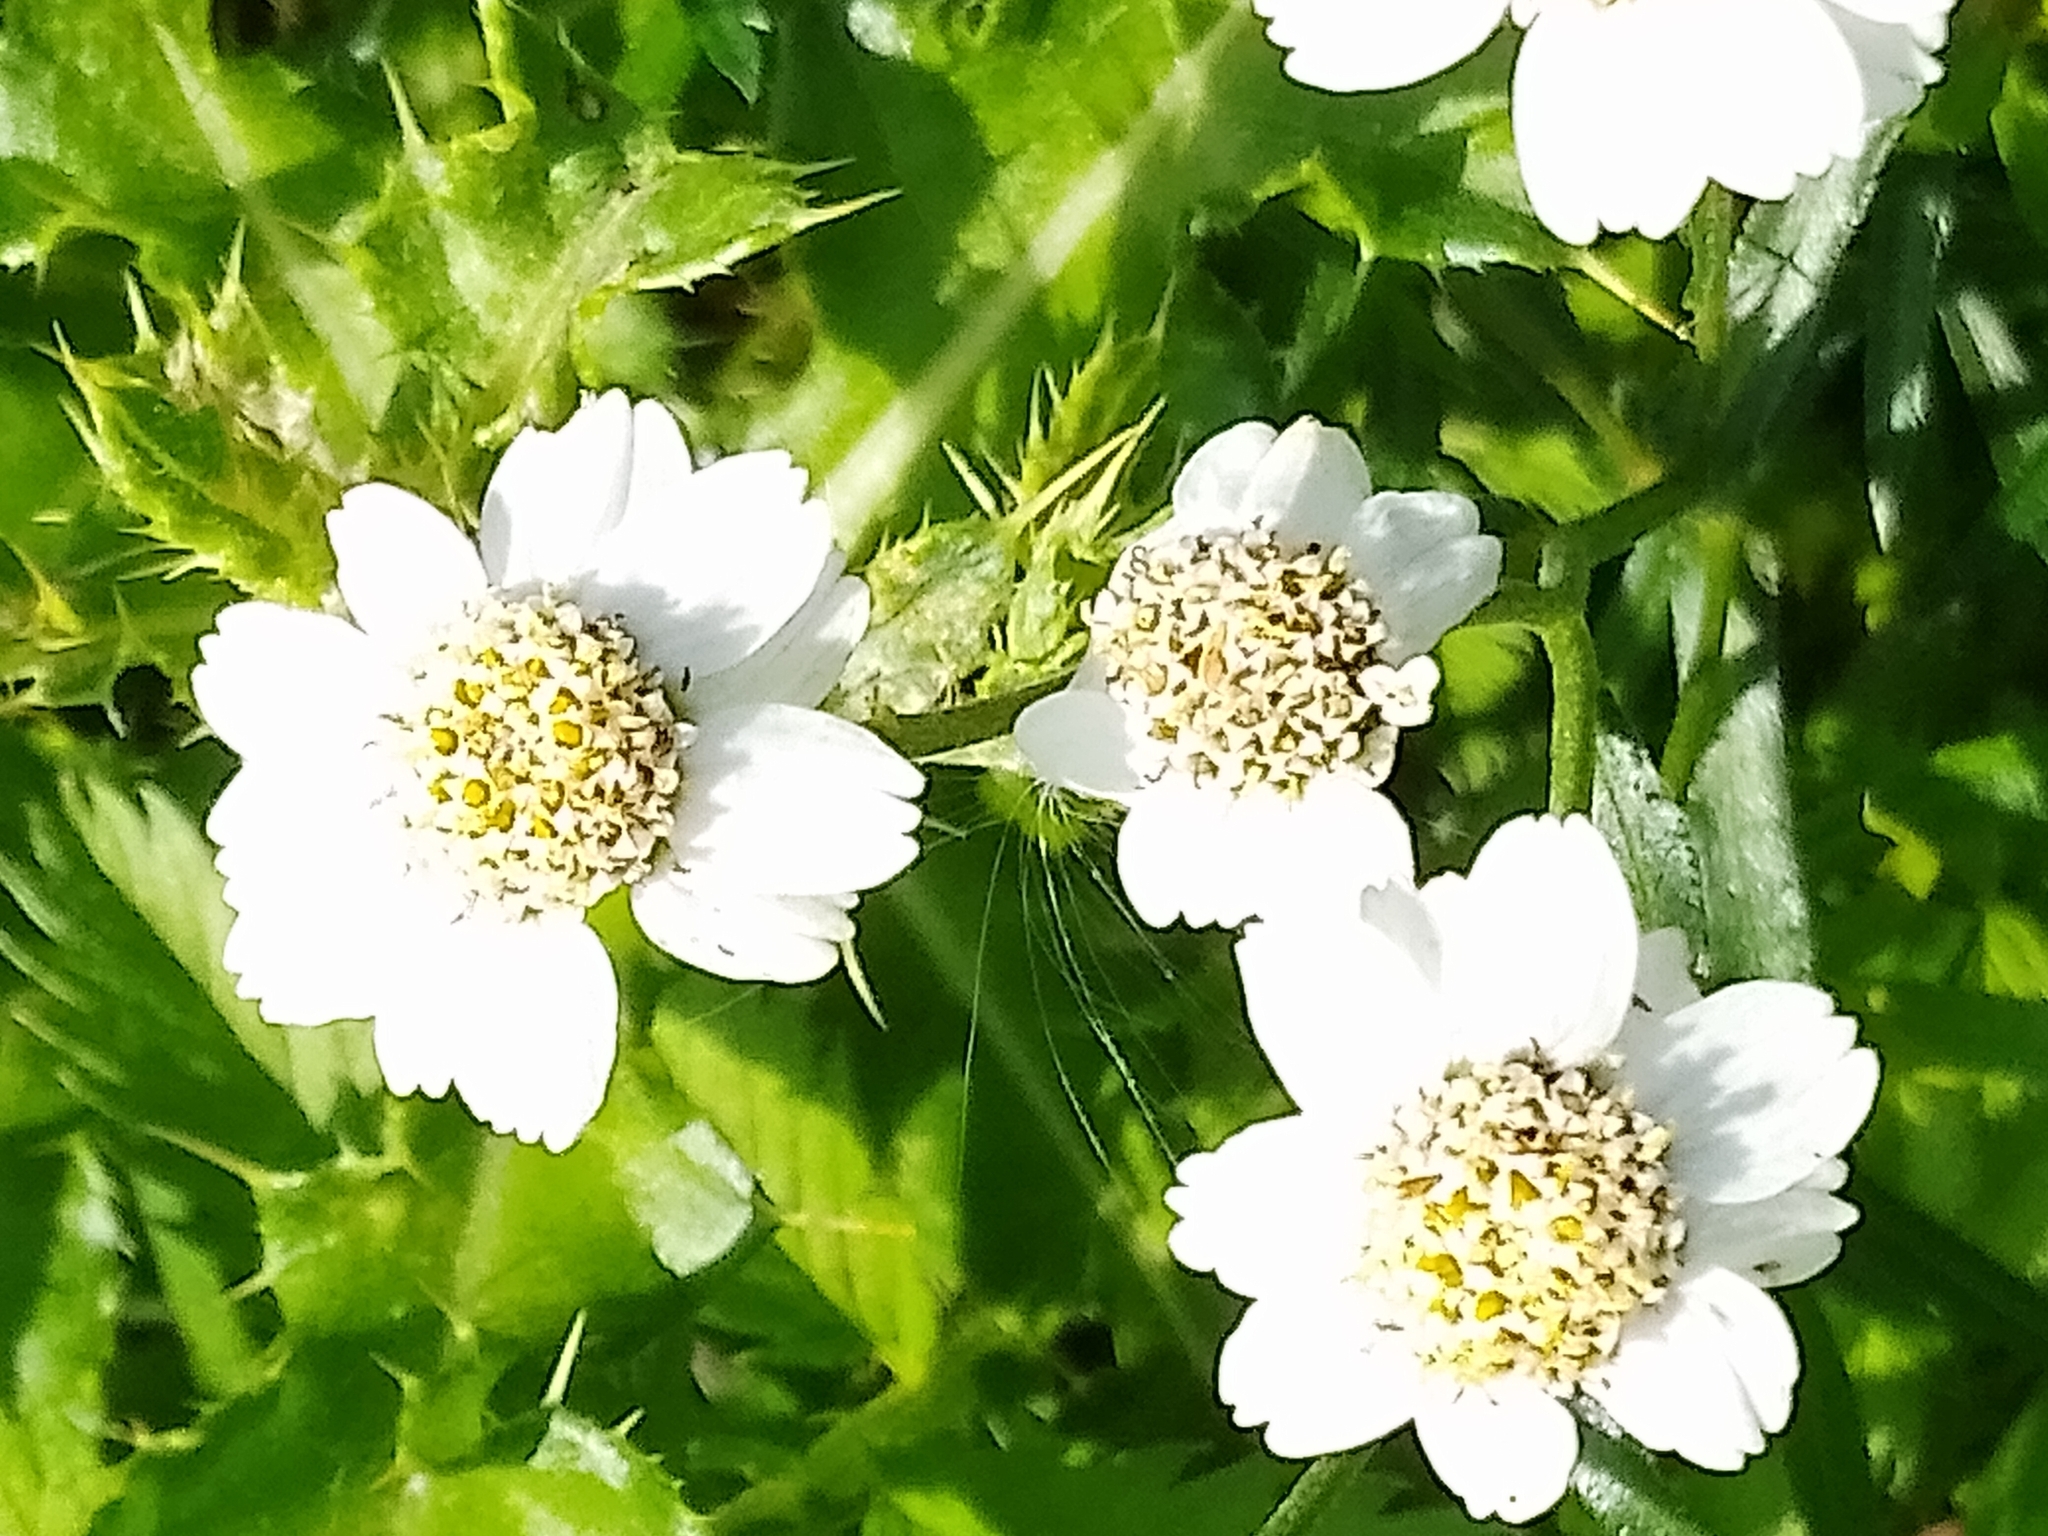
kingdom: Plantae
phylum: Tracheophyta
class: Magnoliopsida
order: Asterales
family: Asteraceae
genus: Achillea
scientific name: Achillea ptarmica
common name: Sneezeweed
